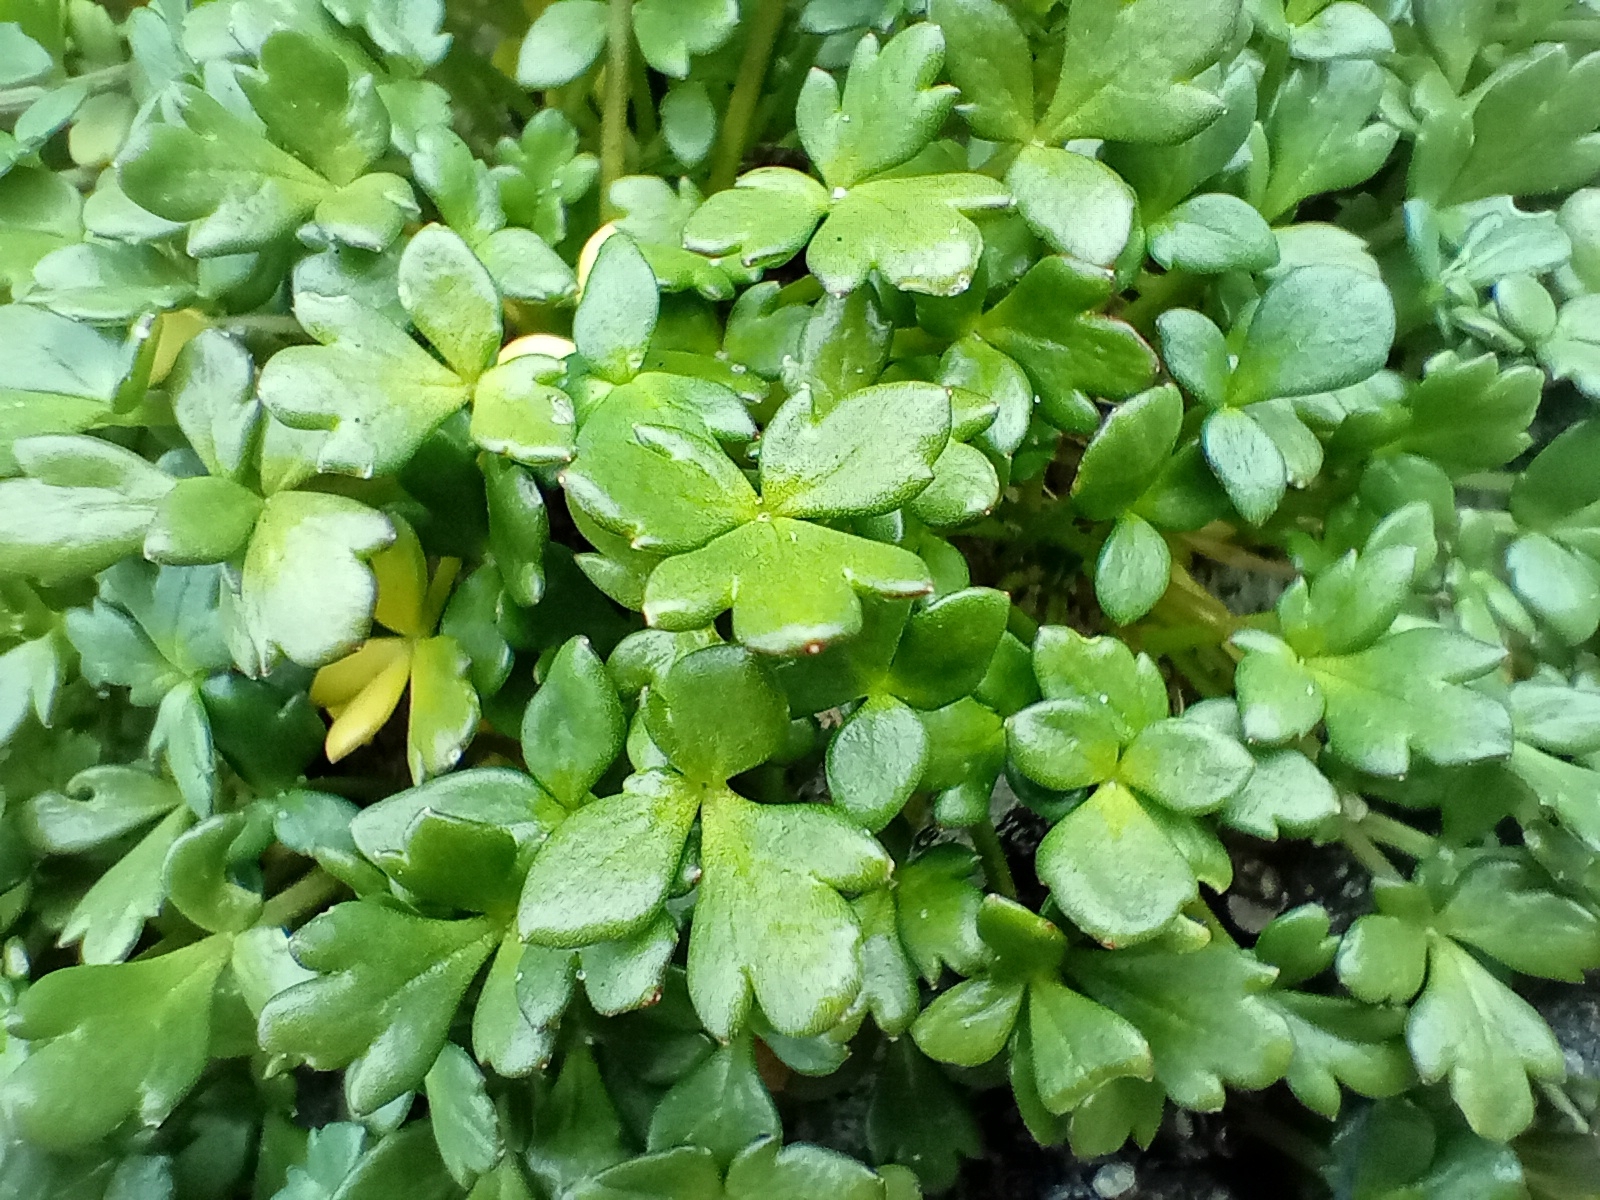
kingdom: Plantae
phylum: Tracheophyta
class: Magnoliopsida
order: Ranunculales
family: Ranunculaceae
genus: Ranunculus
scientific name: Ranunculus acaulis
